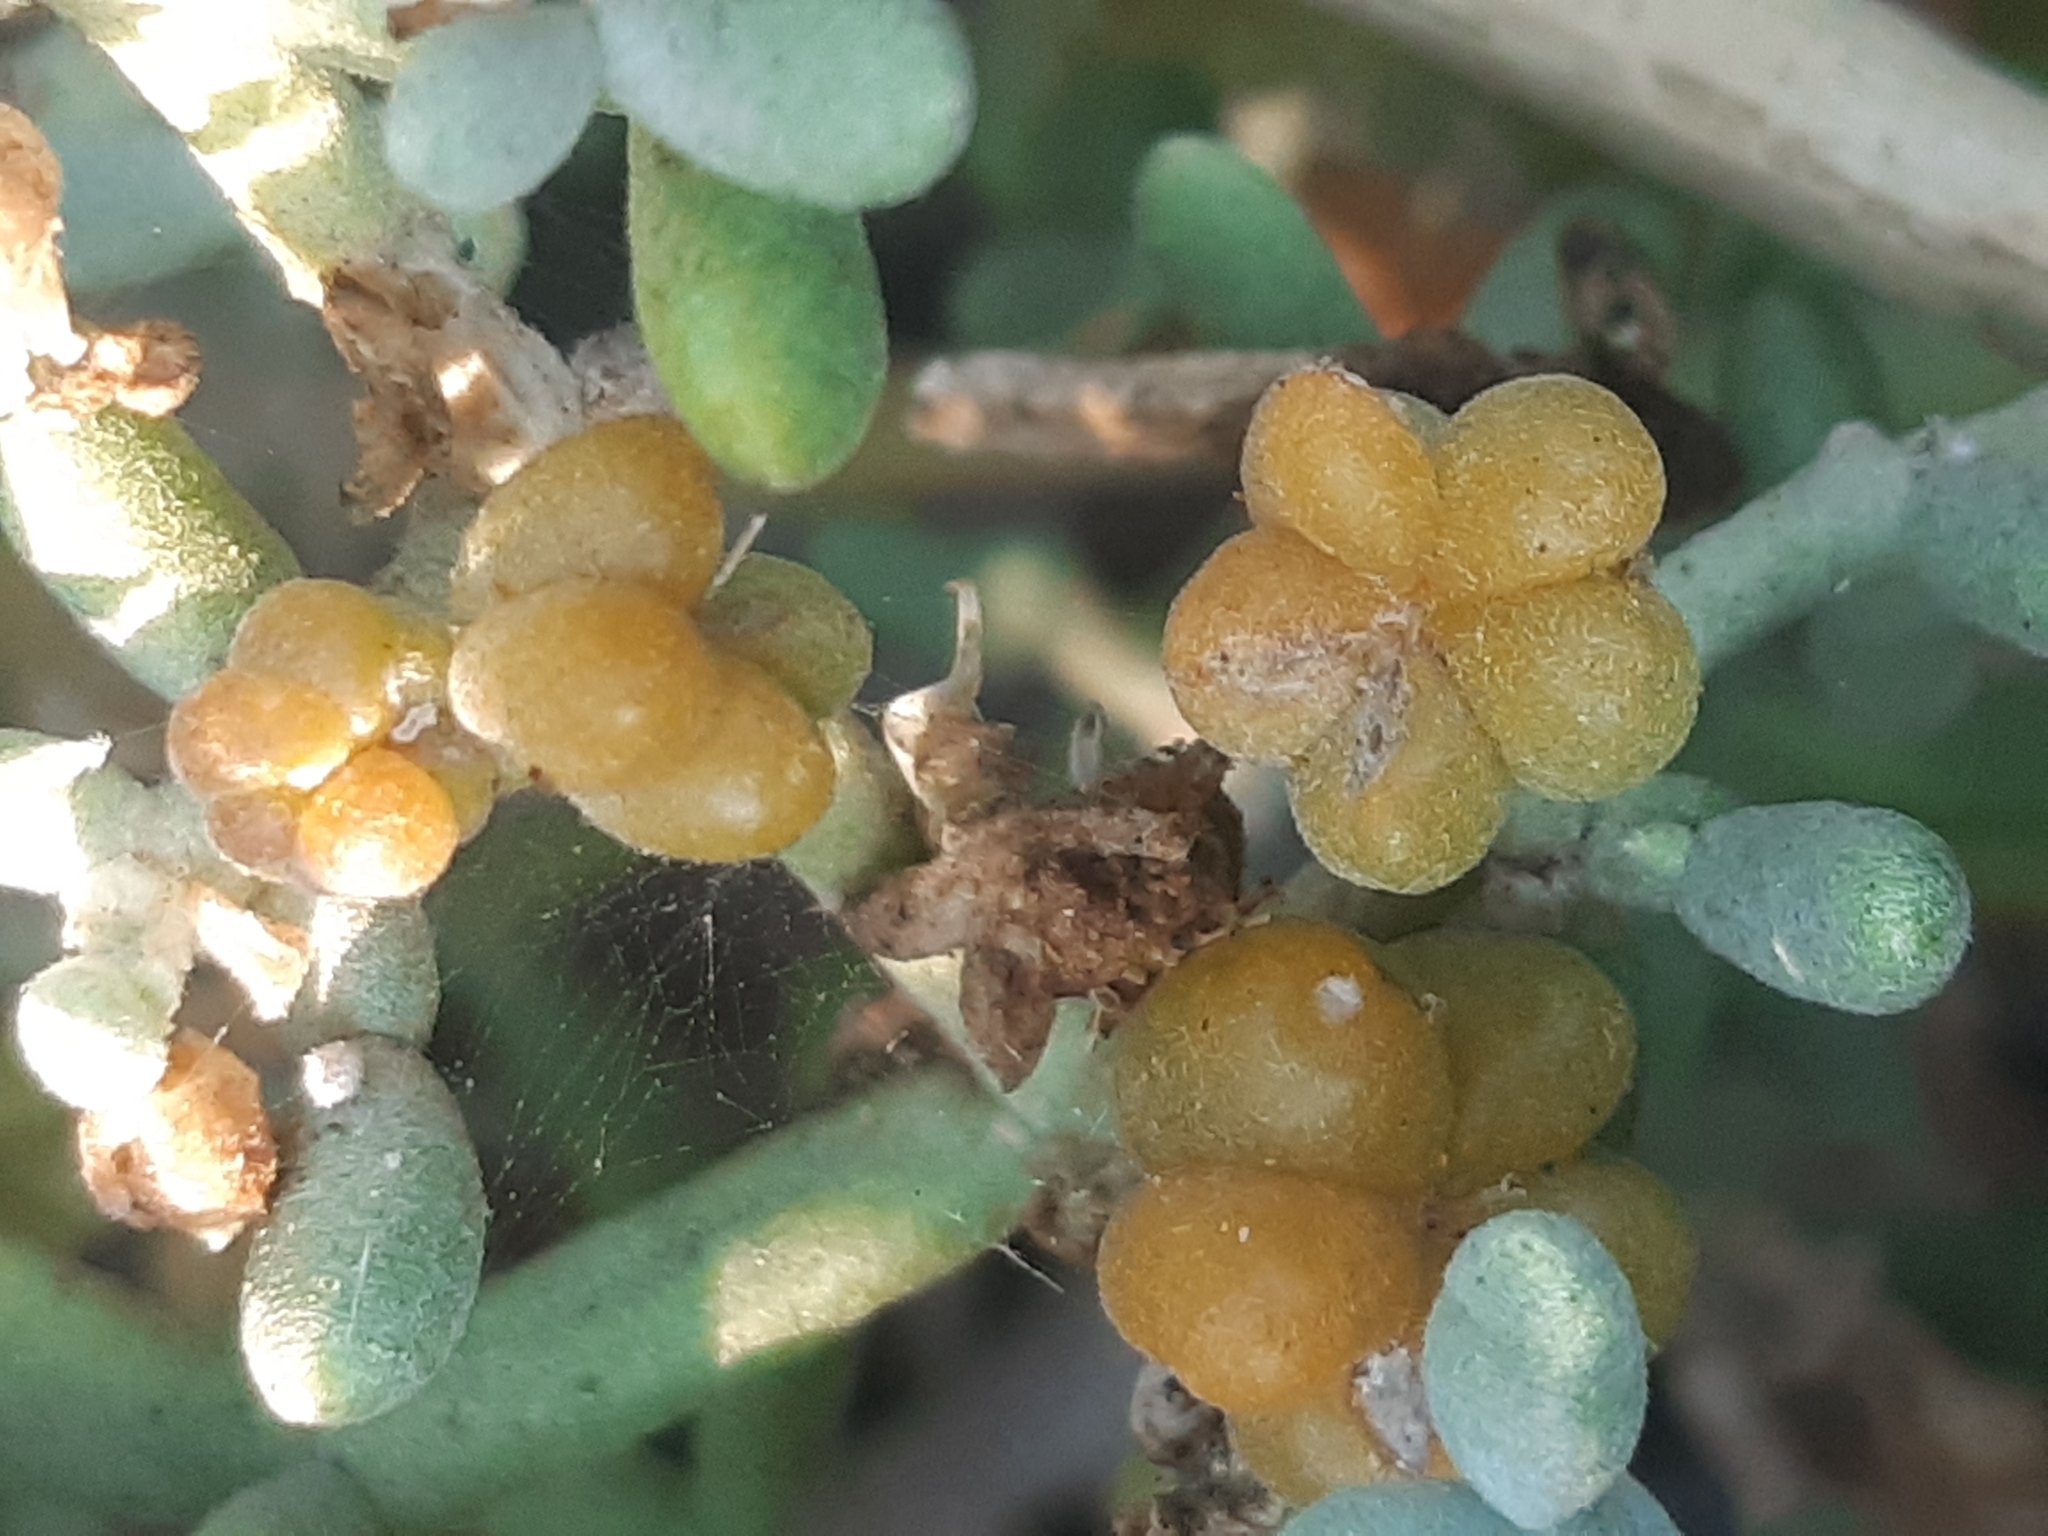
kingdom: Plantae
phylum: Tracheophyta
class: Magnoliopsida
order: Zygophyllales
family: Zygophyllaceae
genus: Tetraena
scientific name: Tetraena alba
